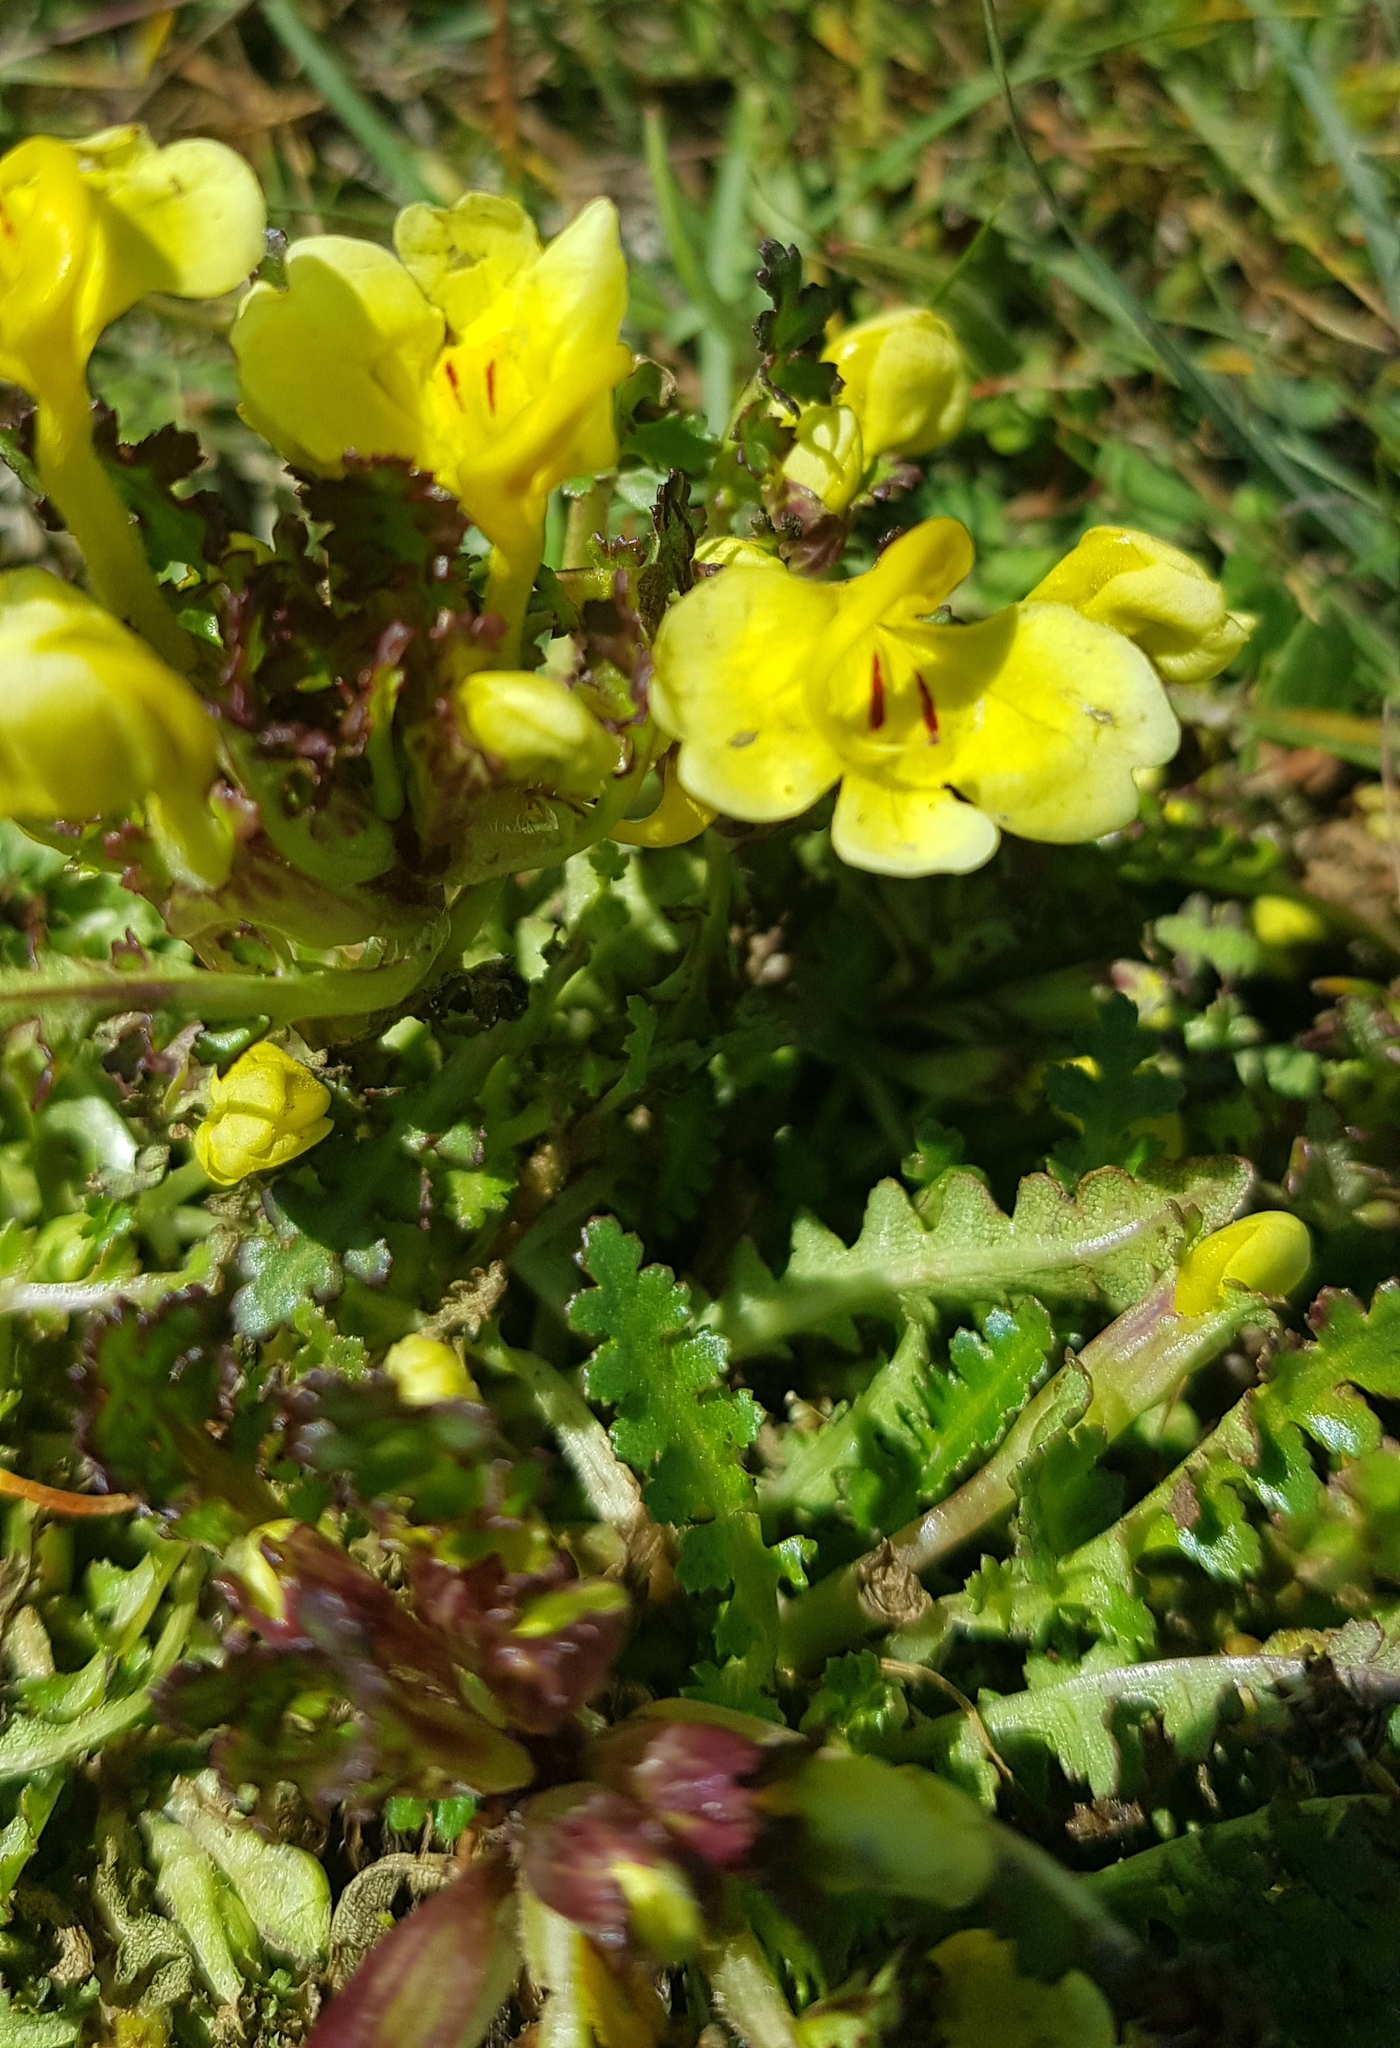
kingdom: Plantae
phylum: Tracheophyta
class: Magnoliopsida
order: Lamiales
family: Orobanchaceae
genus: Pedicularis
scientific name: Pedicularis longiflora
